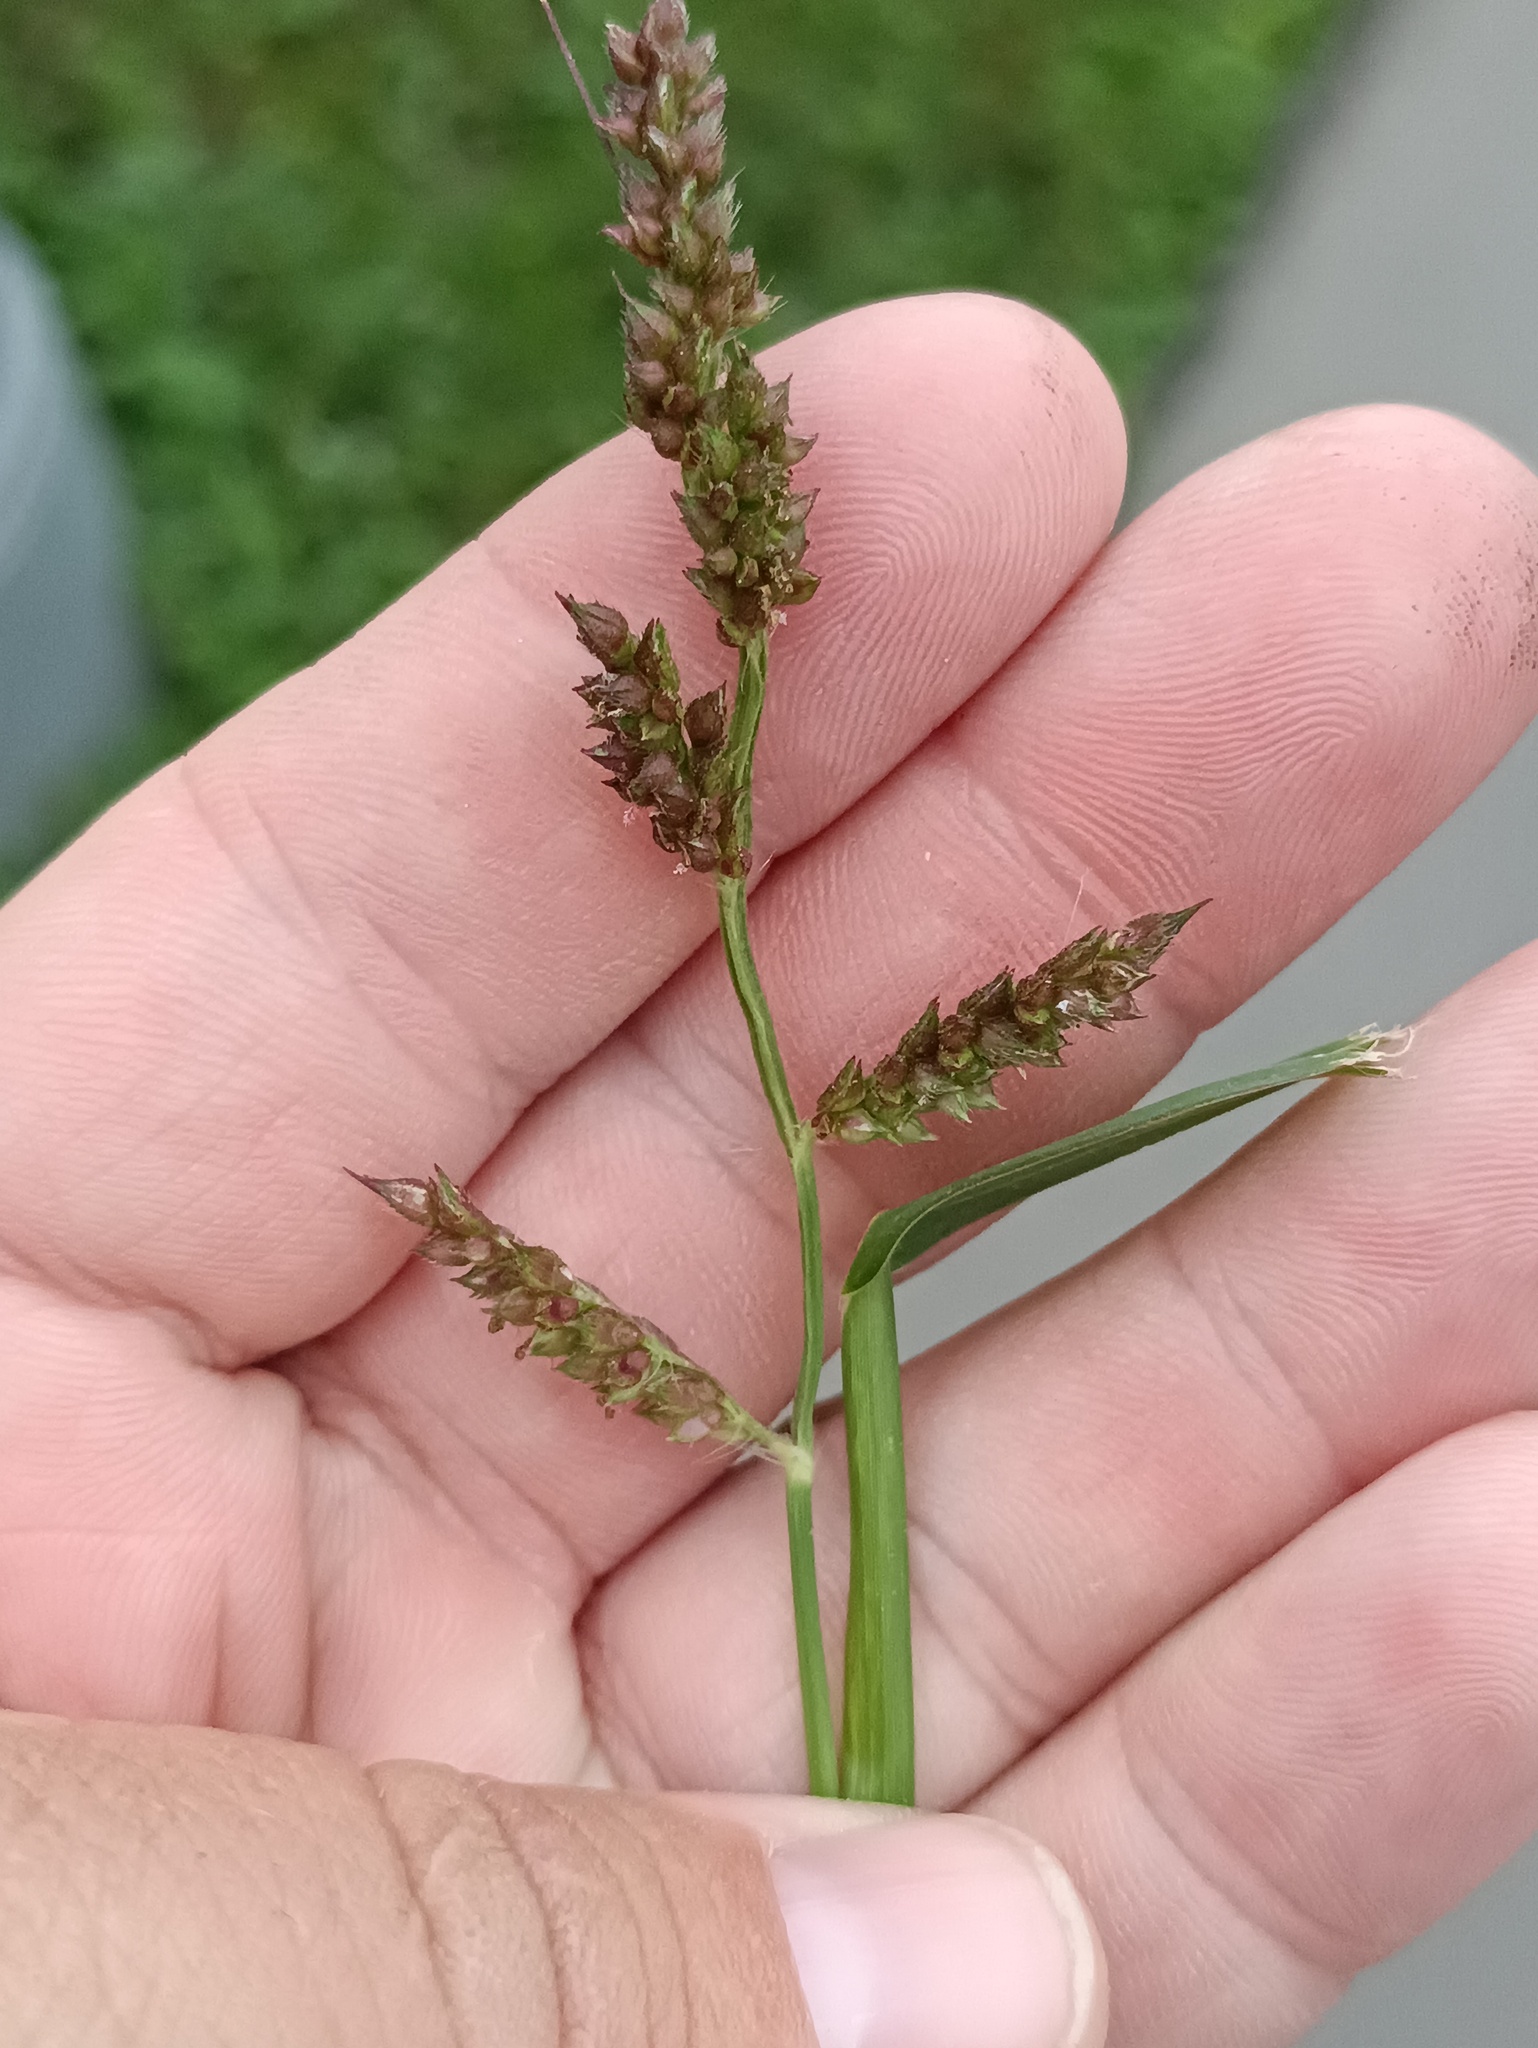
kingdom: Plantae
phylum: Tracheophyta
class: Liliopsida
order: Poales
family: Poaceae
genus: Echinochloa
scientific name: Echinochloa crus-galli
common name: Cockspur
